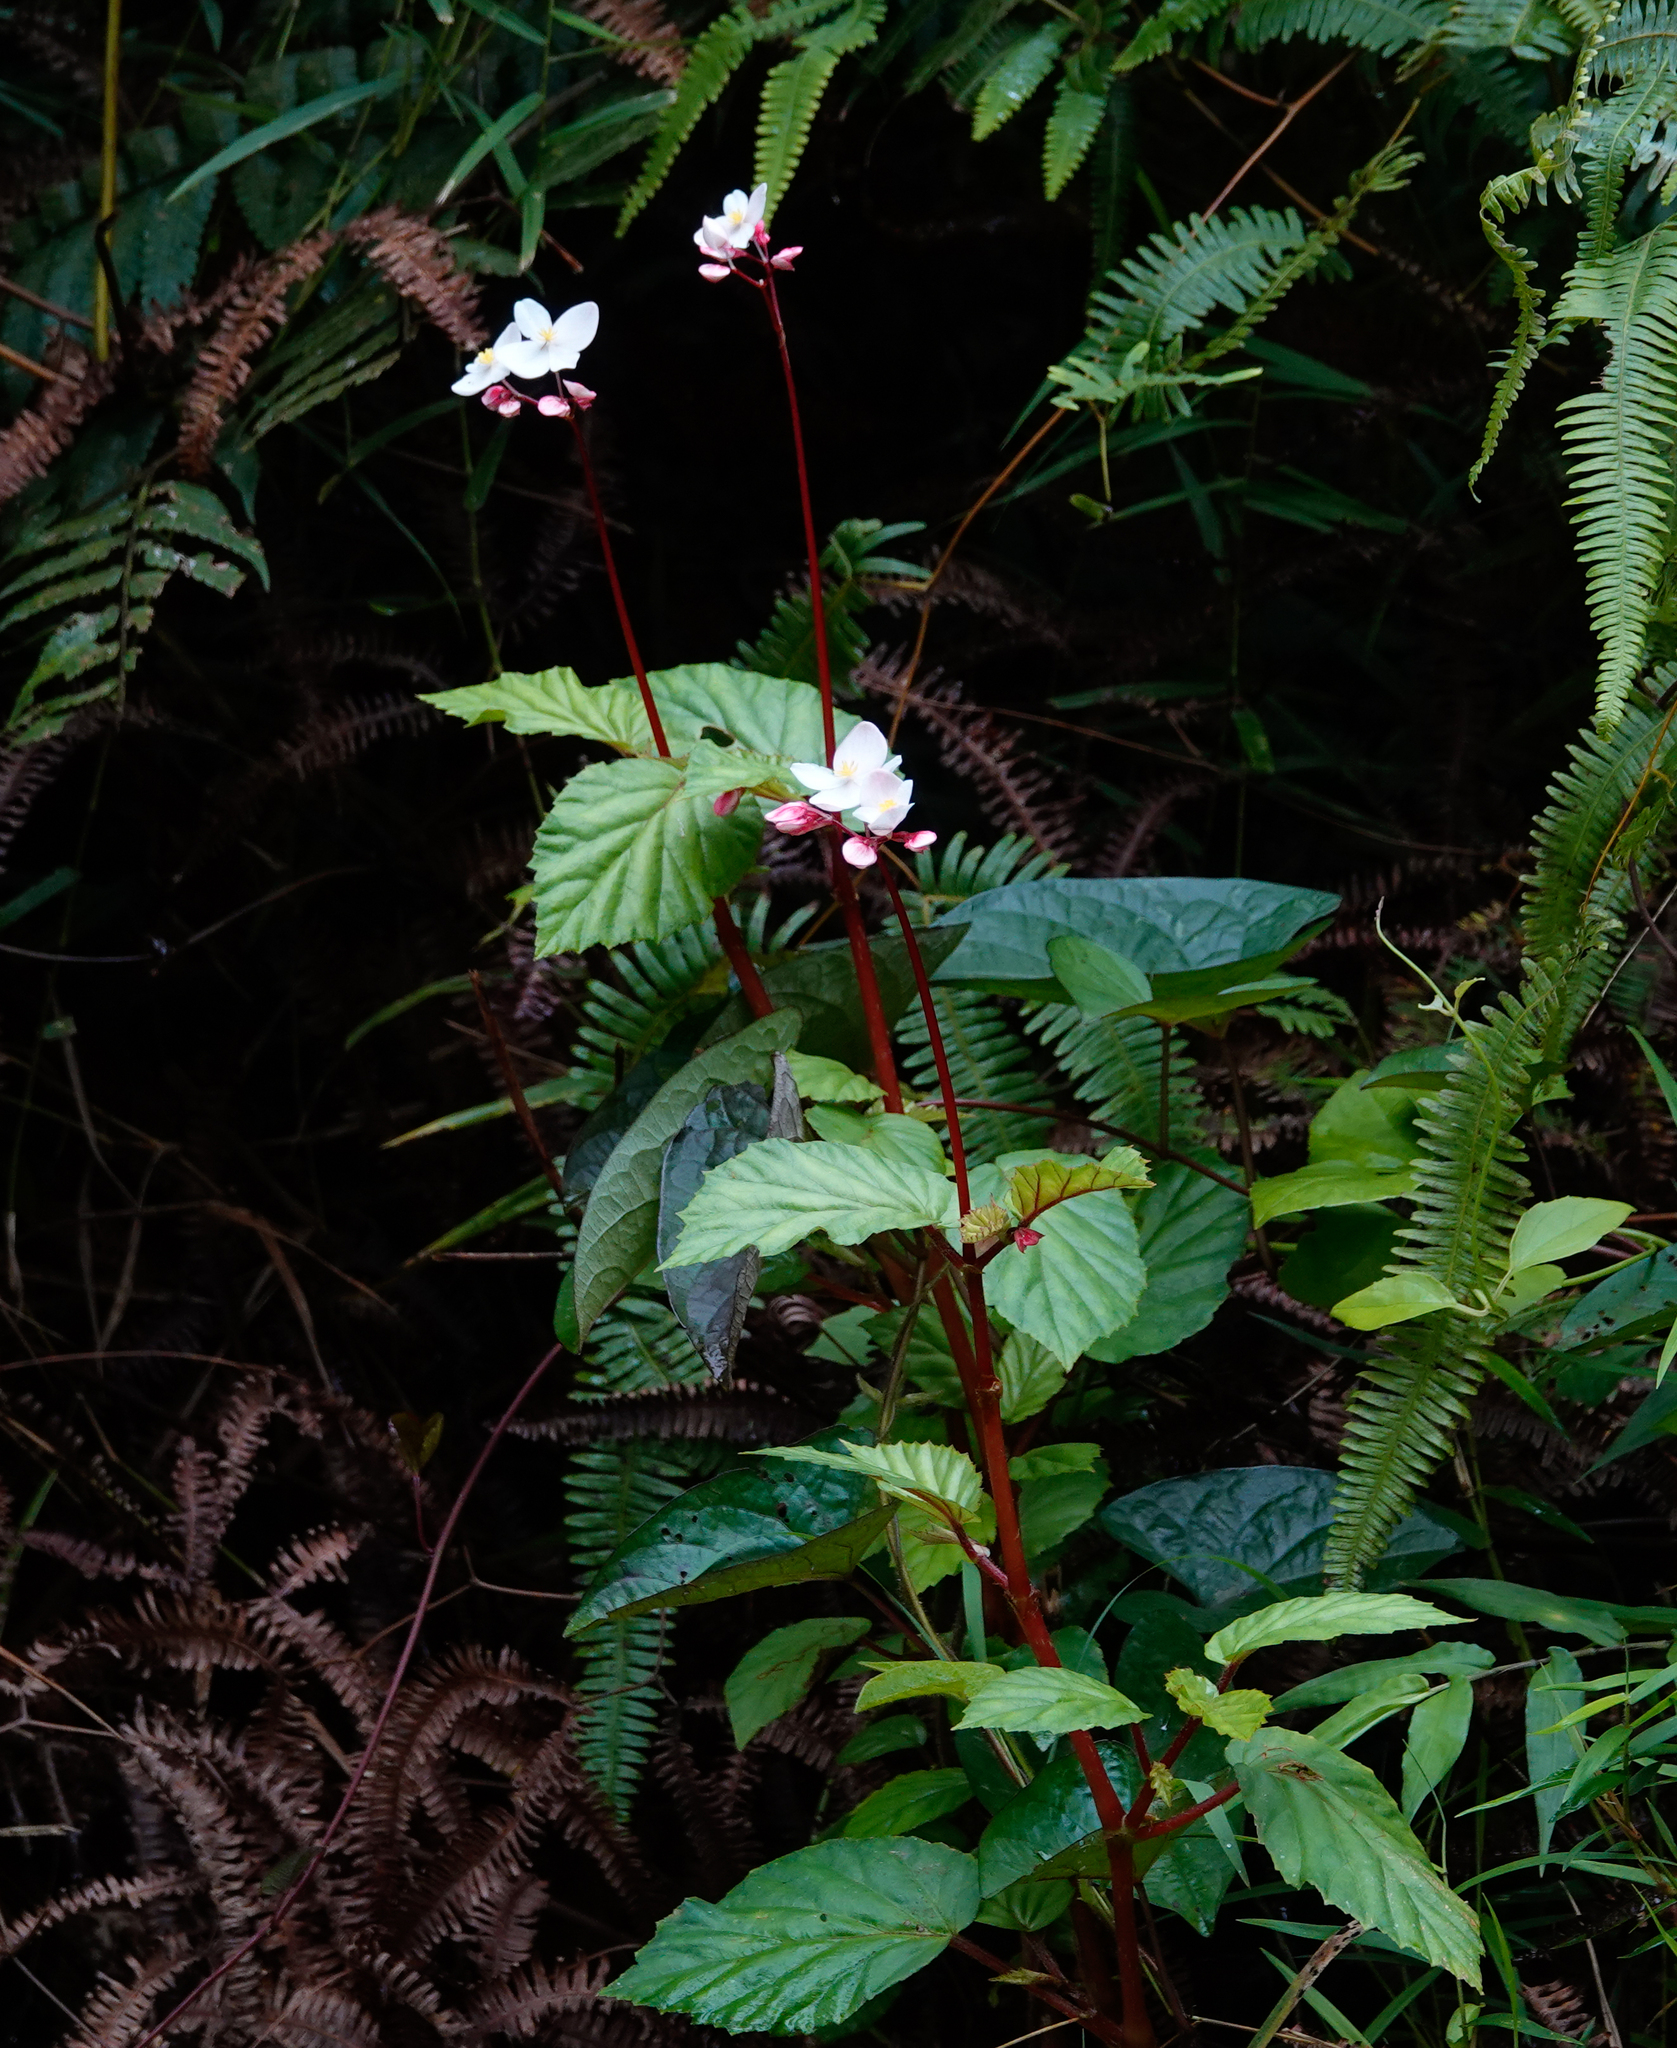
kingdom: Plantae
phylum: Tracheophyta
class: Magnoliopsida
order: Cucurbitales
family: Begoniaceae
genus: Begonia
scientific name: Begonia decandra
